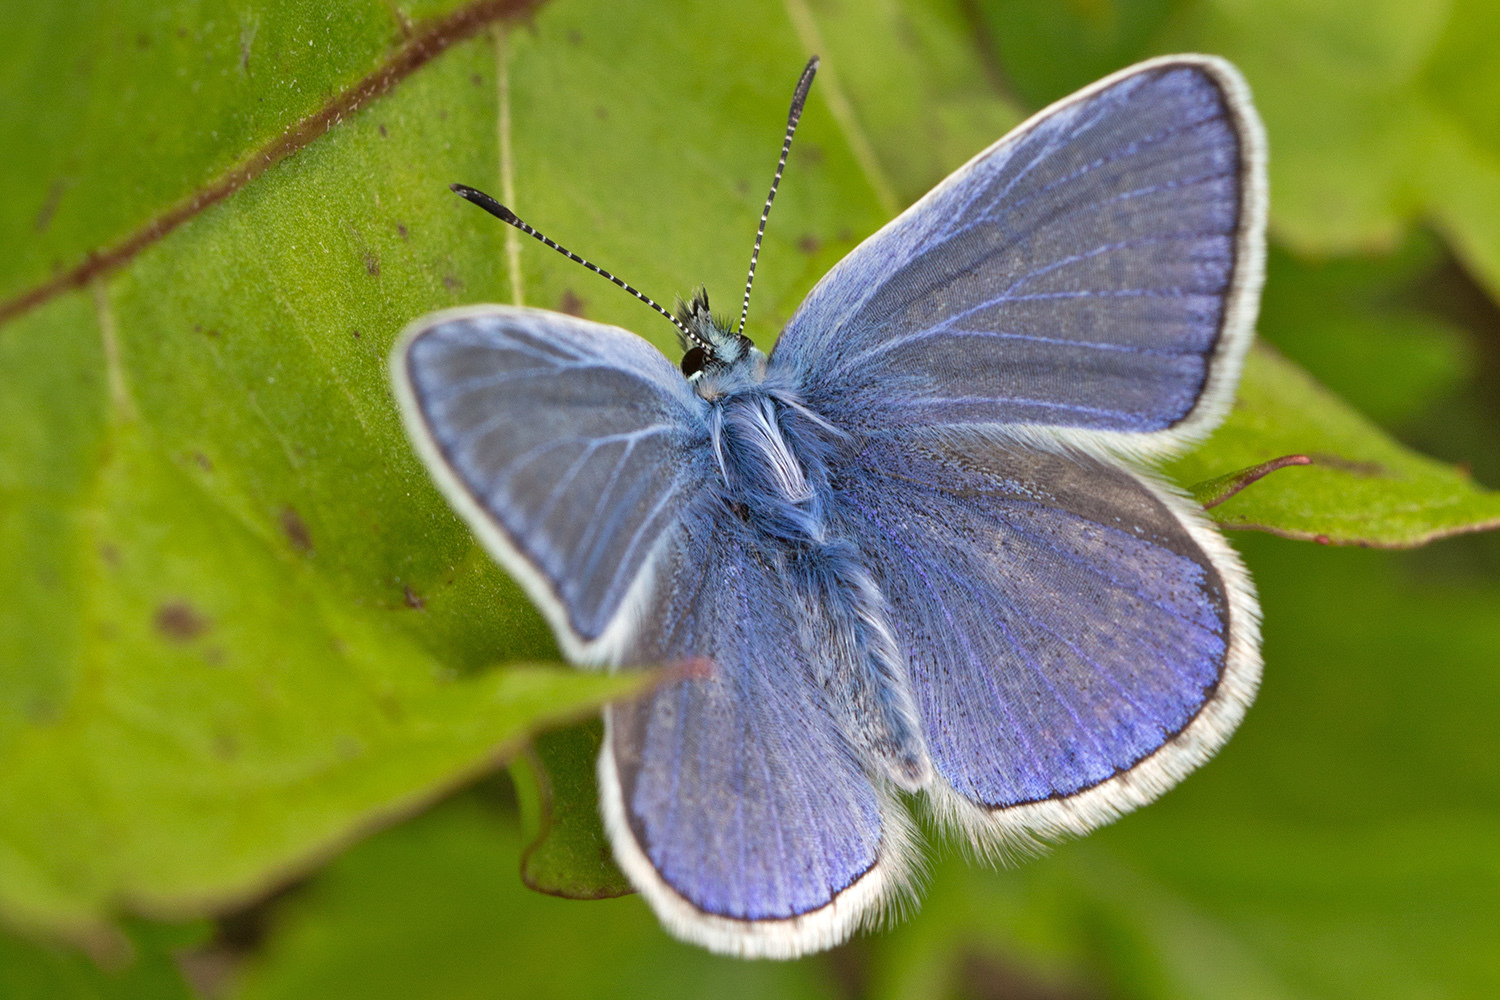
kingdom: Animalia
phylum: Arthropoda
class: Insecta
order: Lepidoptera
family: Lycaenidae
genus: Polyommatus
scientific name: Polyommatus icarus
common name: Common blue
